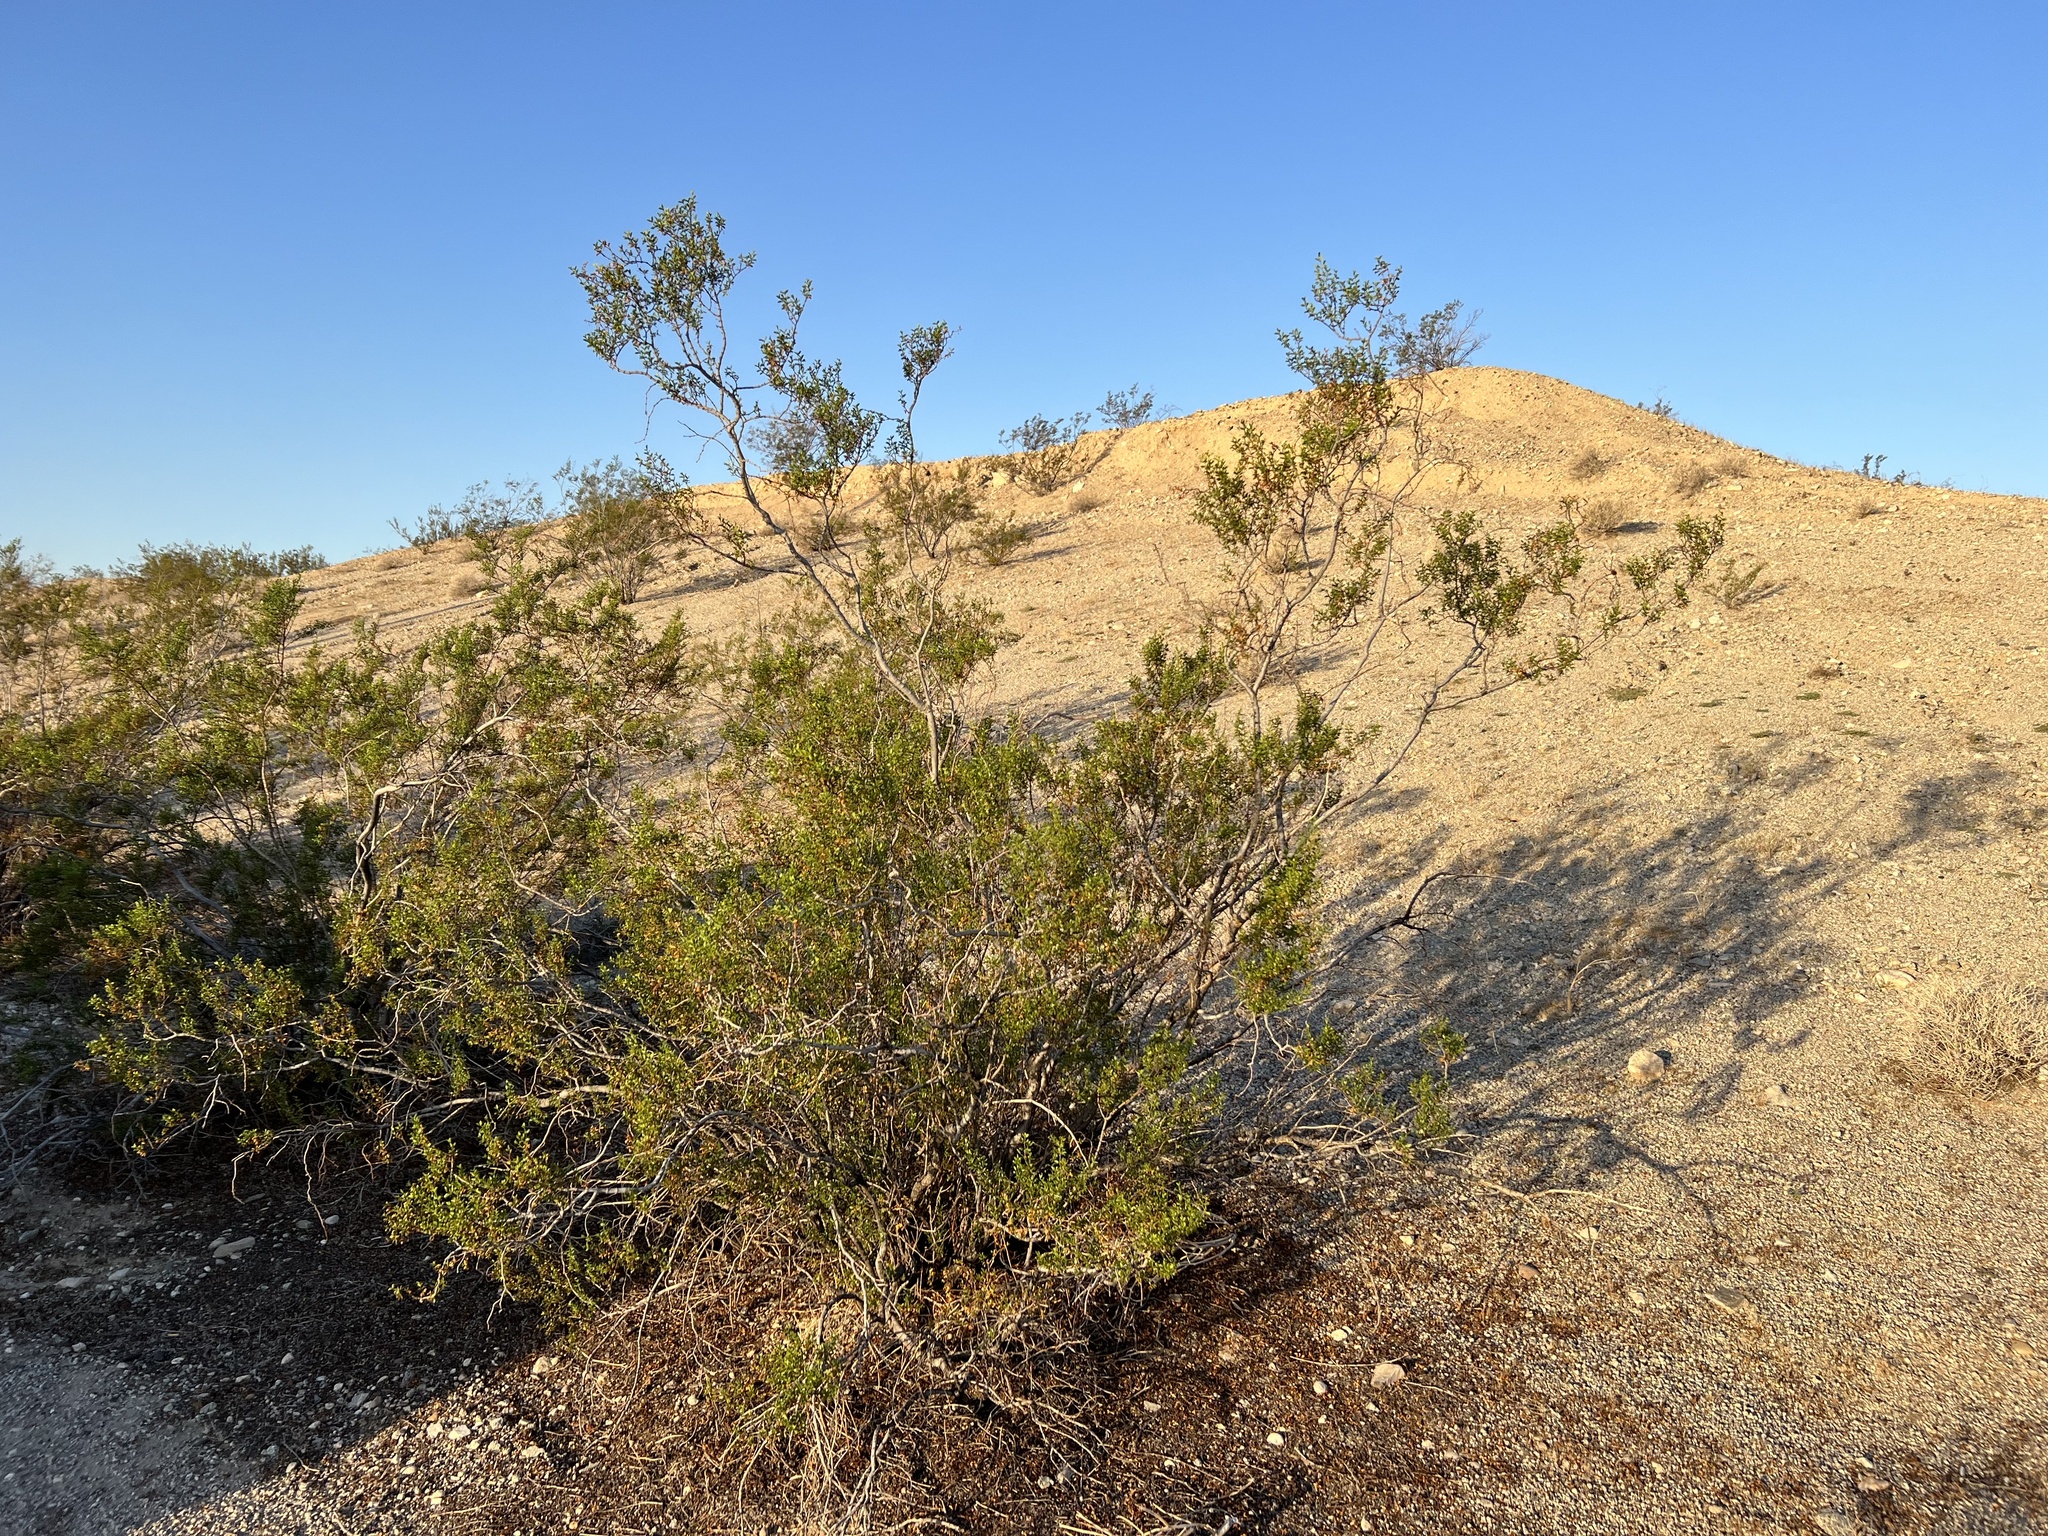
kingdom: Plantae
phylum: Tracheophyta
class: Magnoliopsida
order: Zygophyllales
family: Zygophyllaceae
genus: Larrea
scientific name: Larrea tridentata
